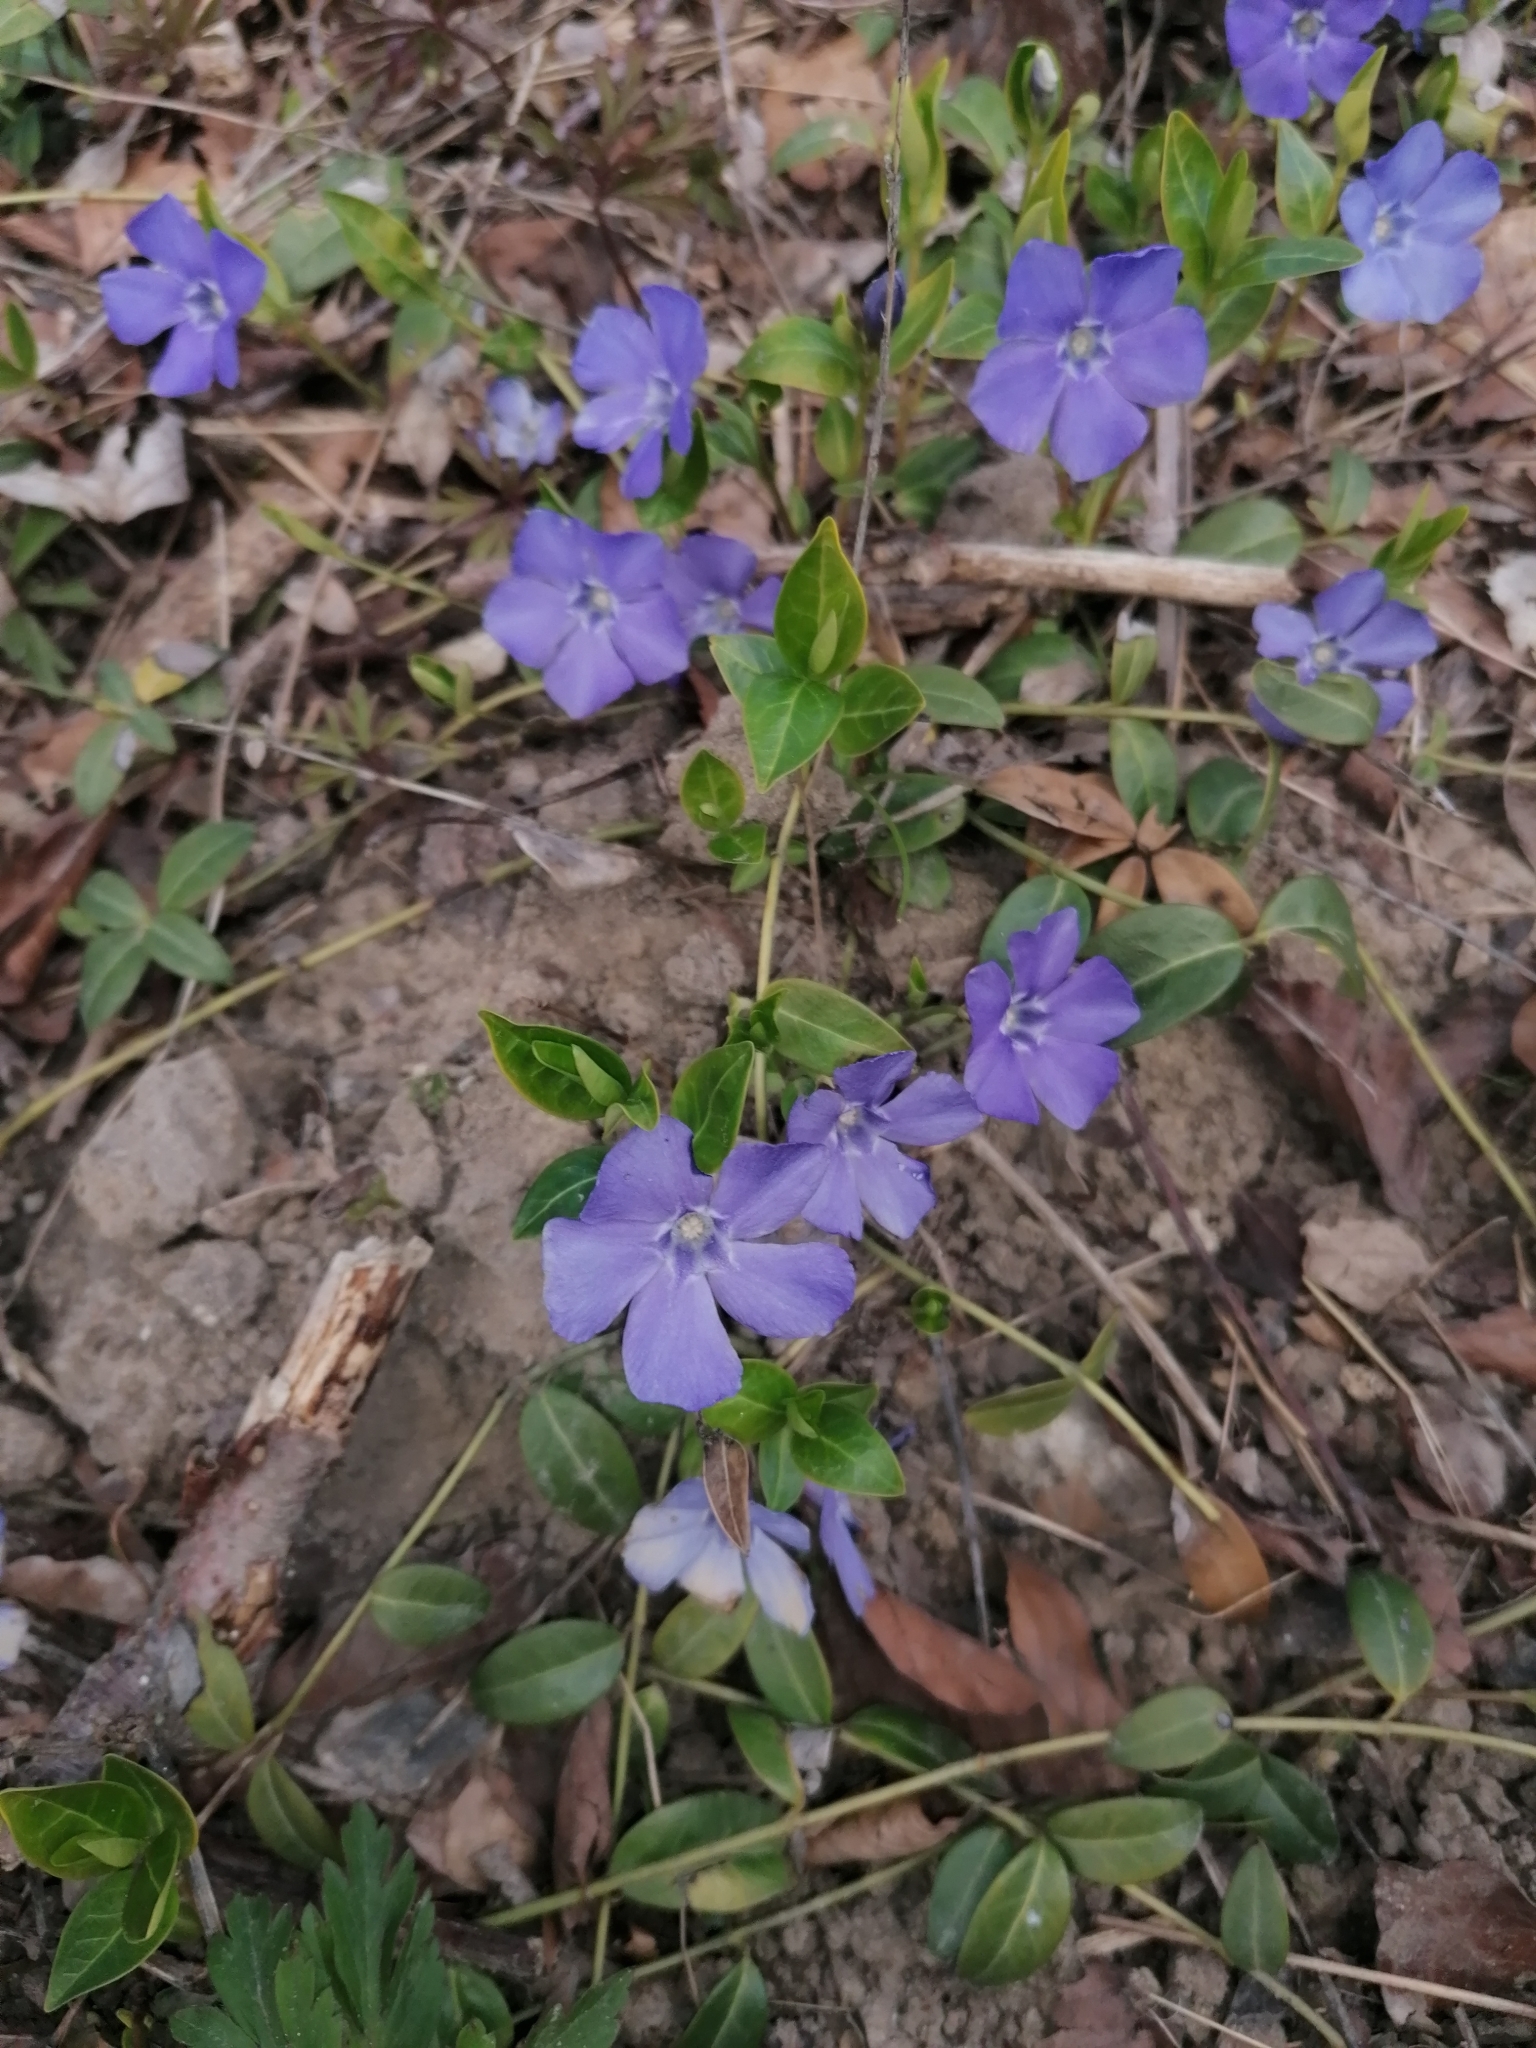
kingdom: Plantae
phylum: Tracheophyta
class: Magnoliopsida
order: Gentianales
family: Apocynaceae
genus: Vinca
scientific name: Vinca minor
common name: Lesser periwinkle
